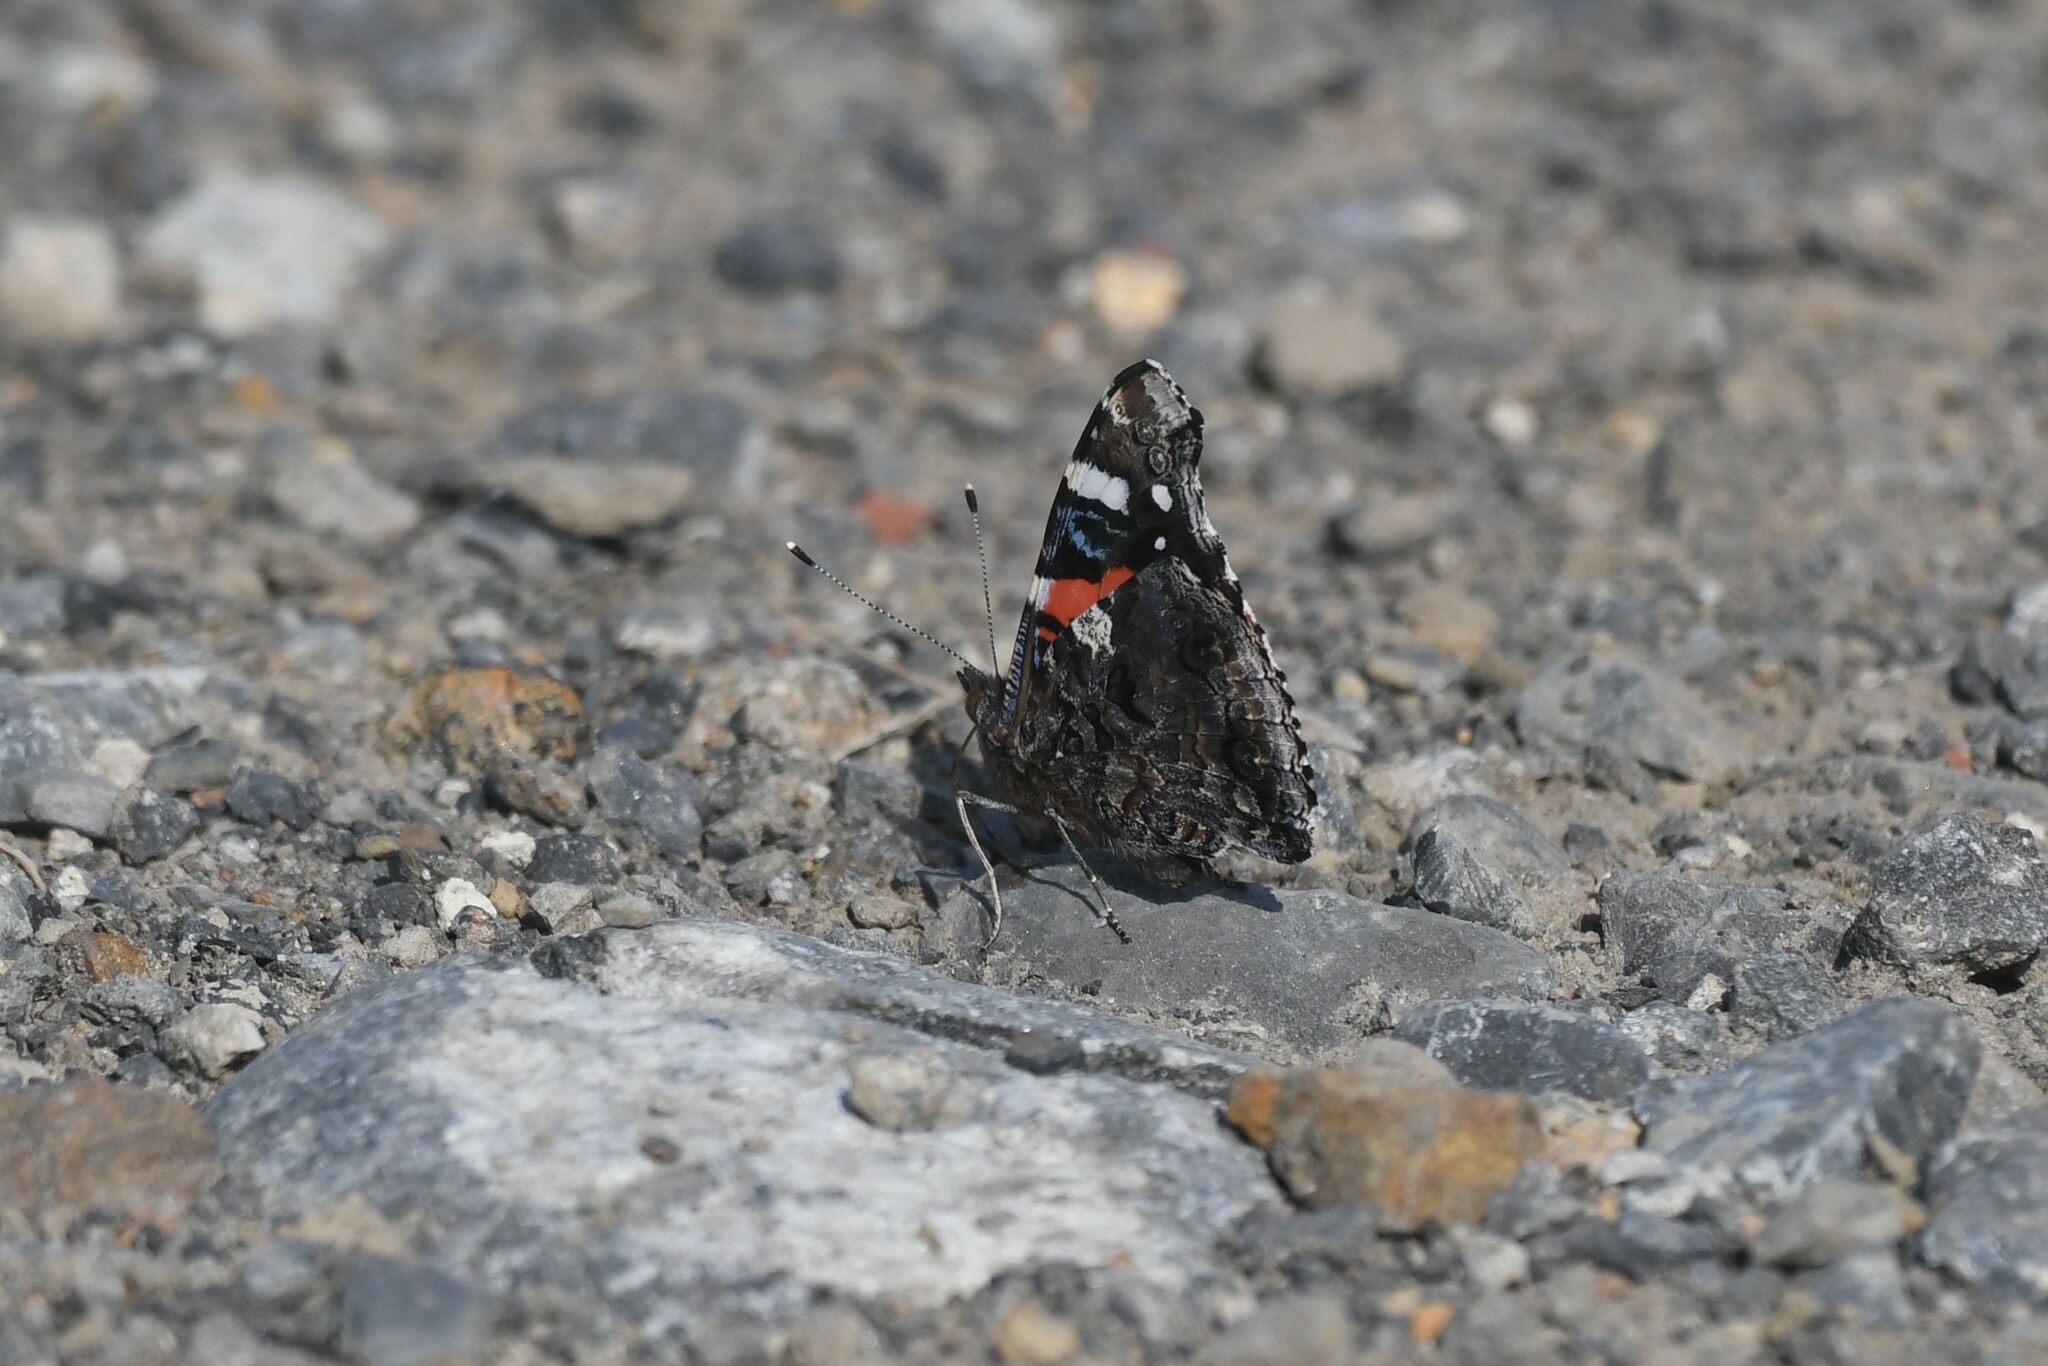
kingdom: Animalia
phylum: Arthropoda
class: Insecta
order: Lepidoptera
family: Nymphalidae
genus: Vanessa
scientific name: Vanessa atalanta
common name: Red admiral
